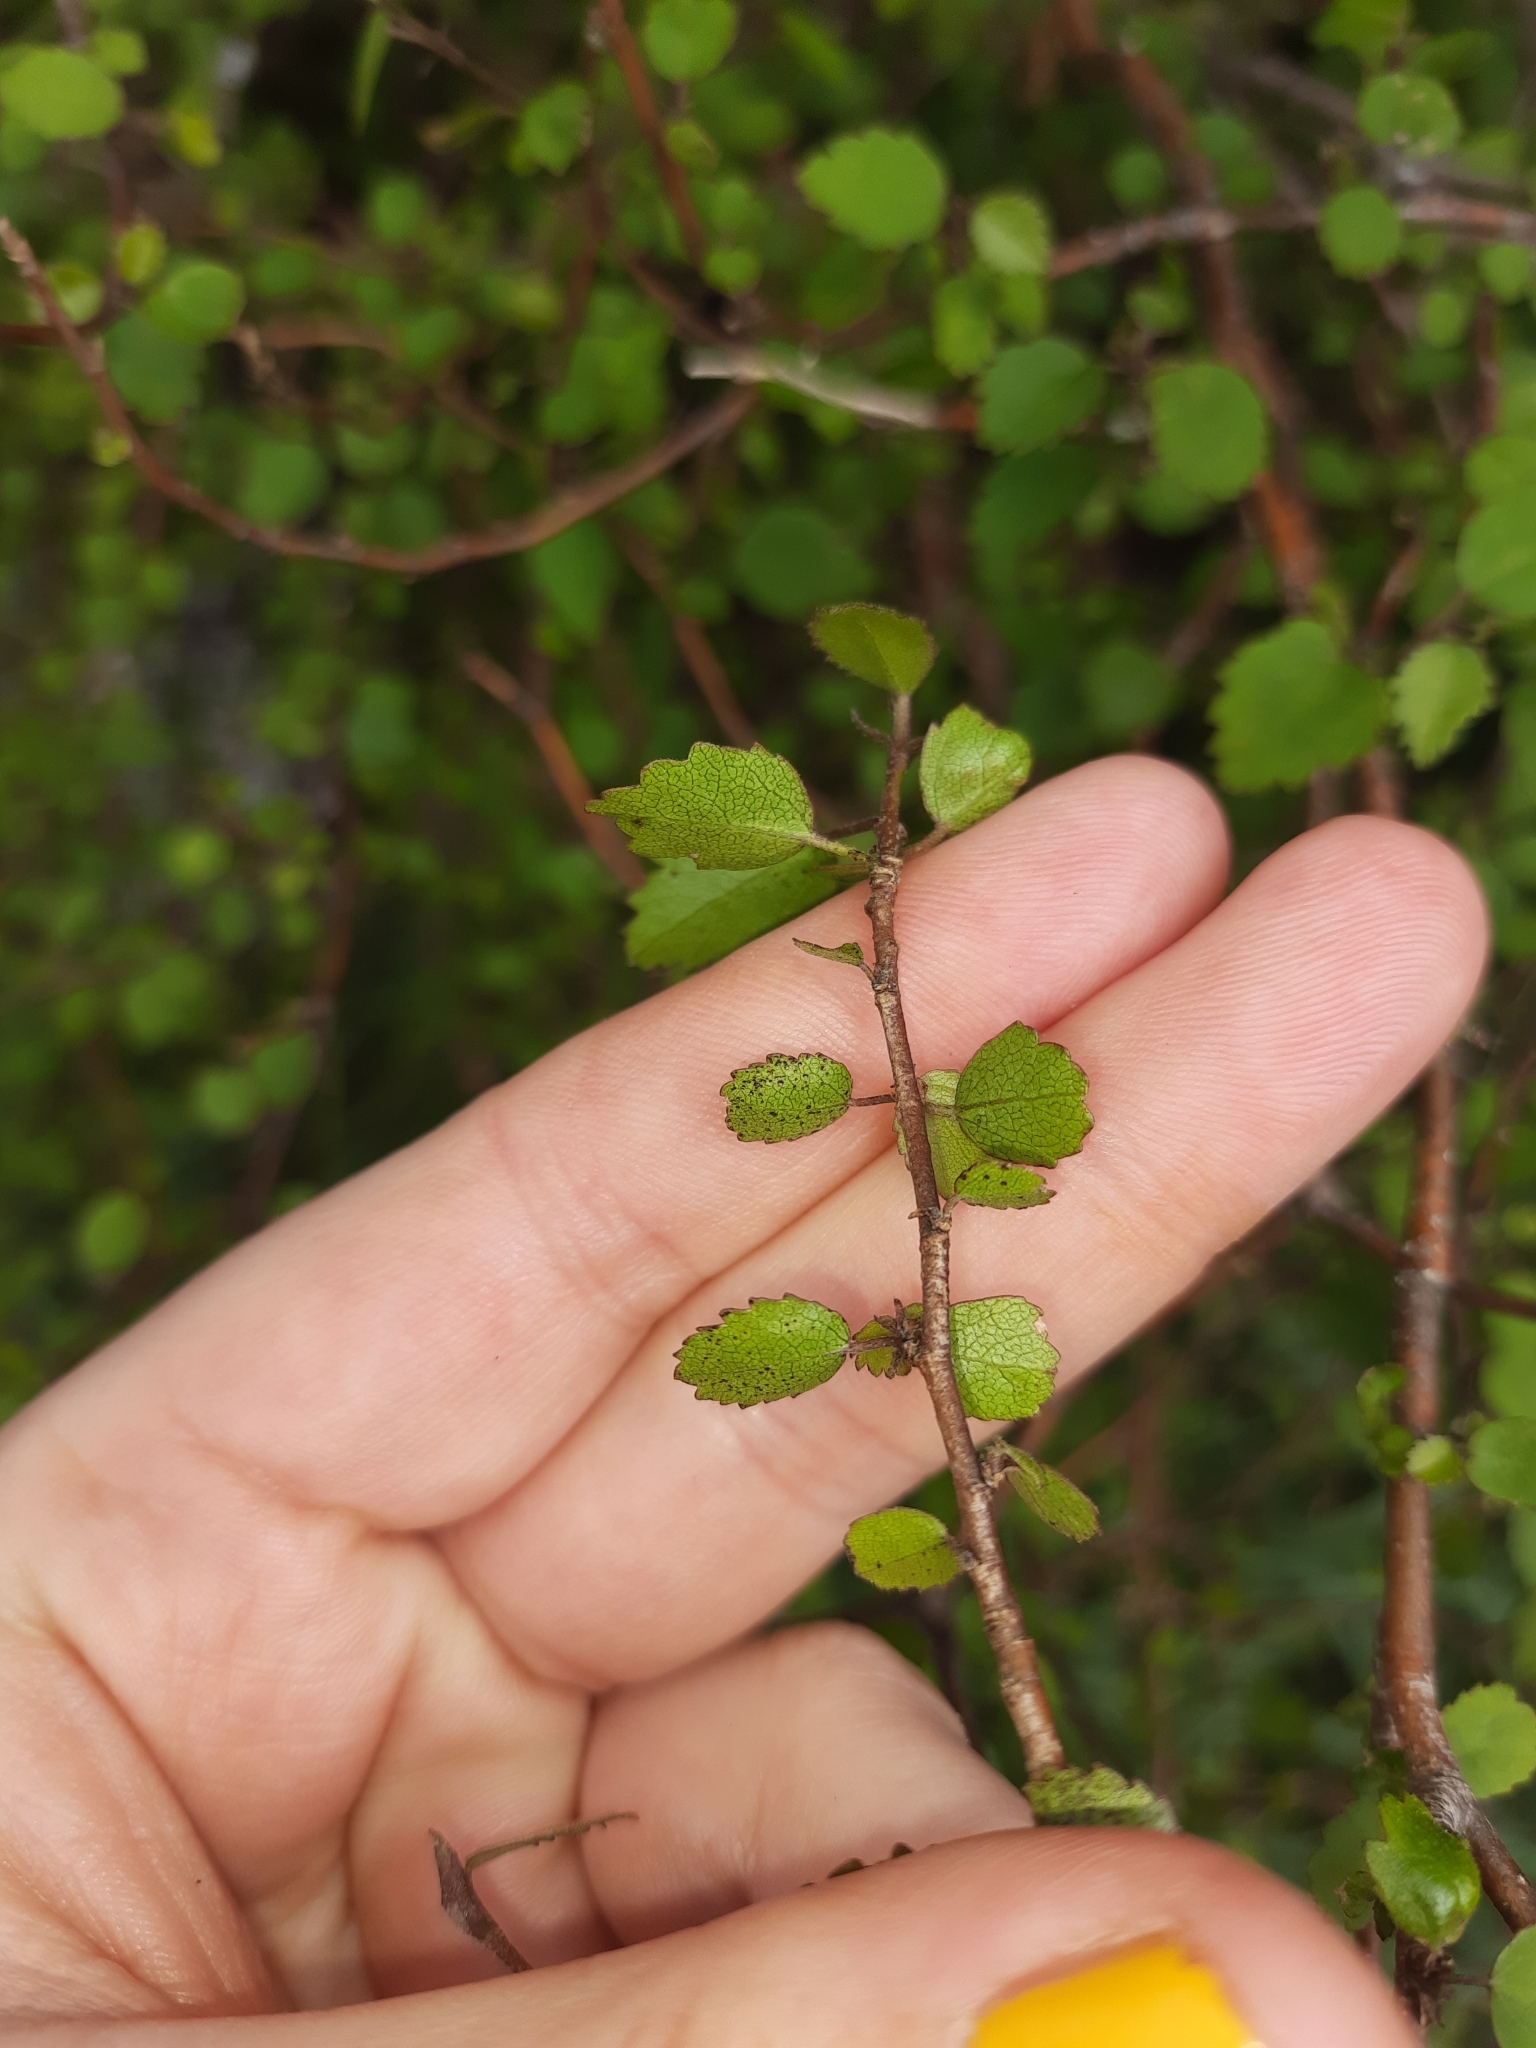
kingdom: Plantae
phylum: Tracheophyta
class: Magnoliopsida
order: Malvales
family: Malvaceae
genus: Plagianthus
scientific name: Plagianthus regius
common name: Manatu
